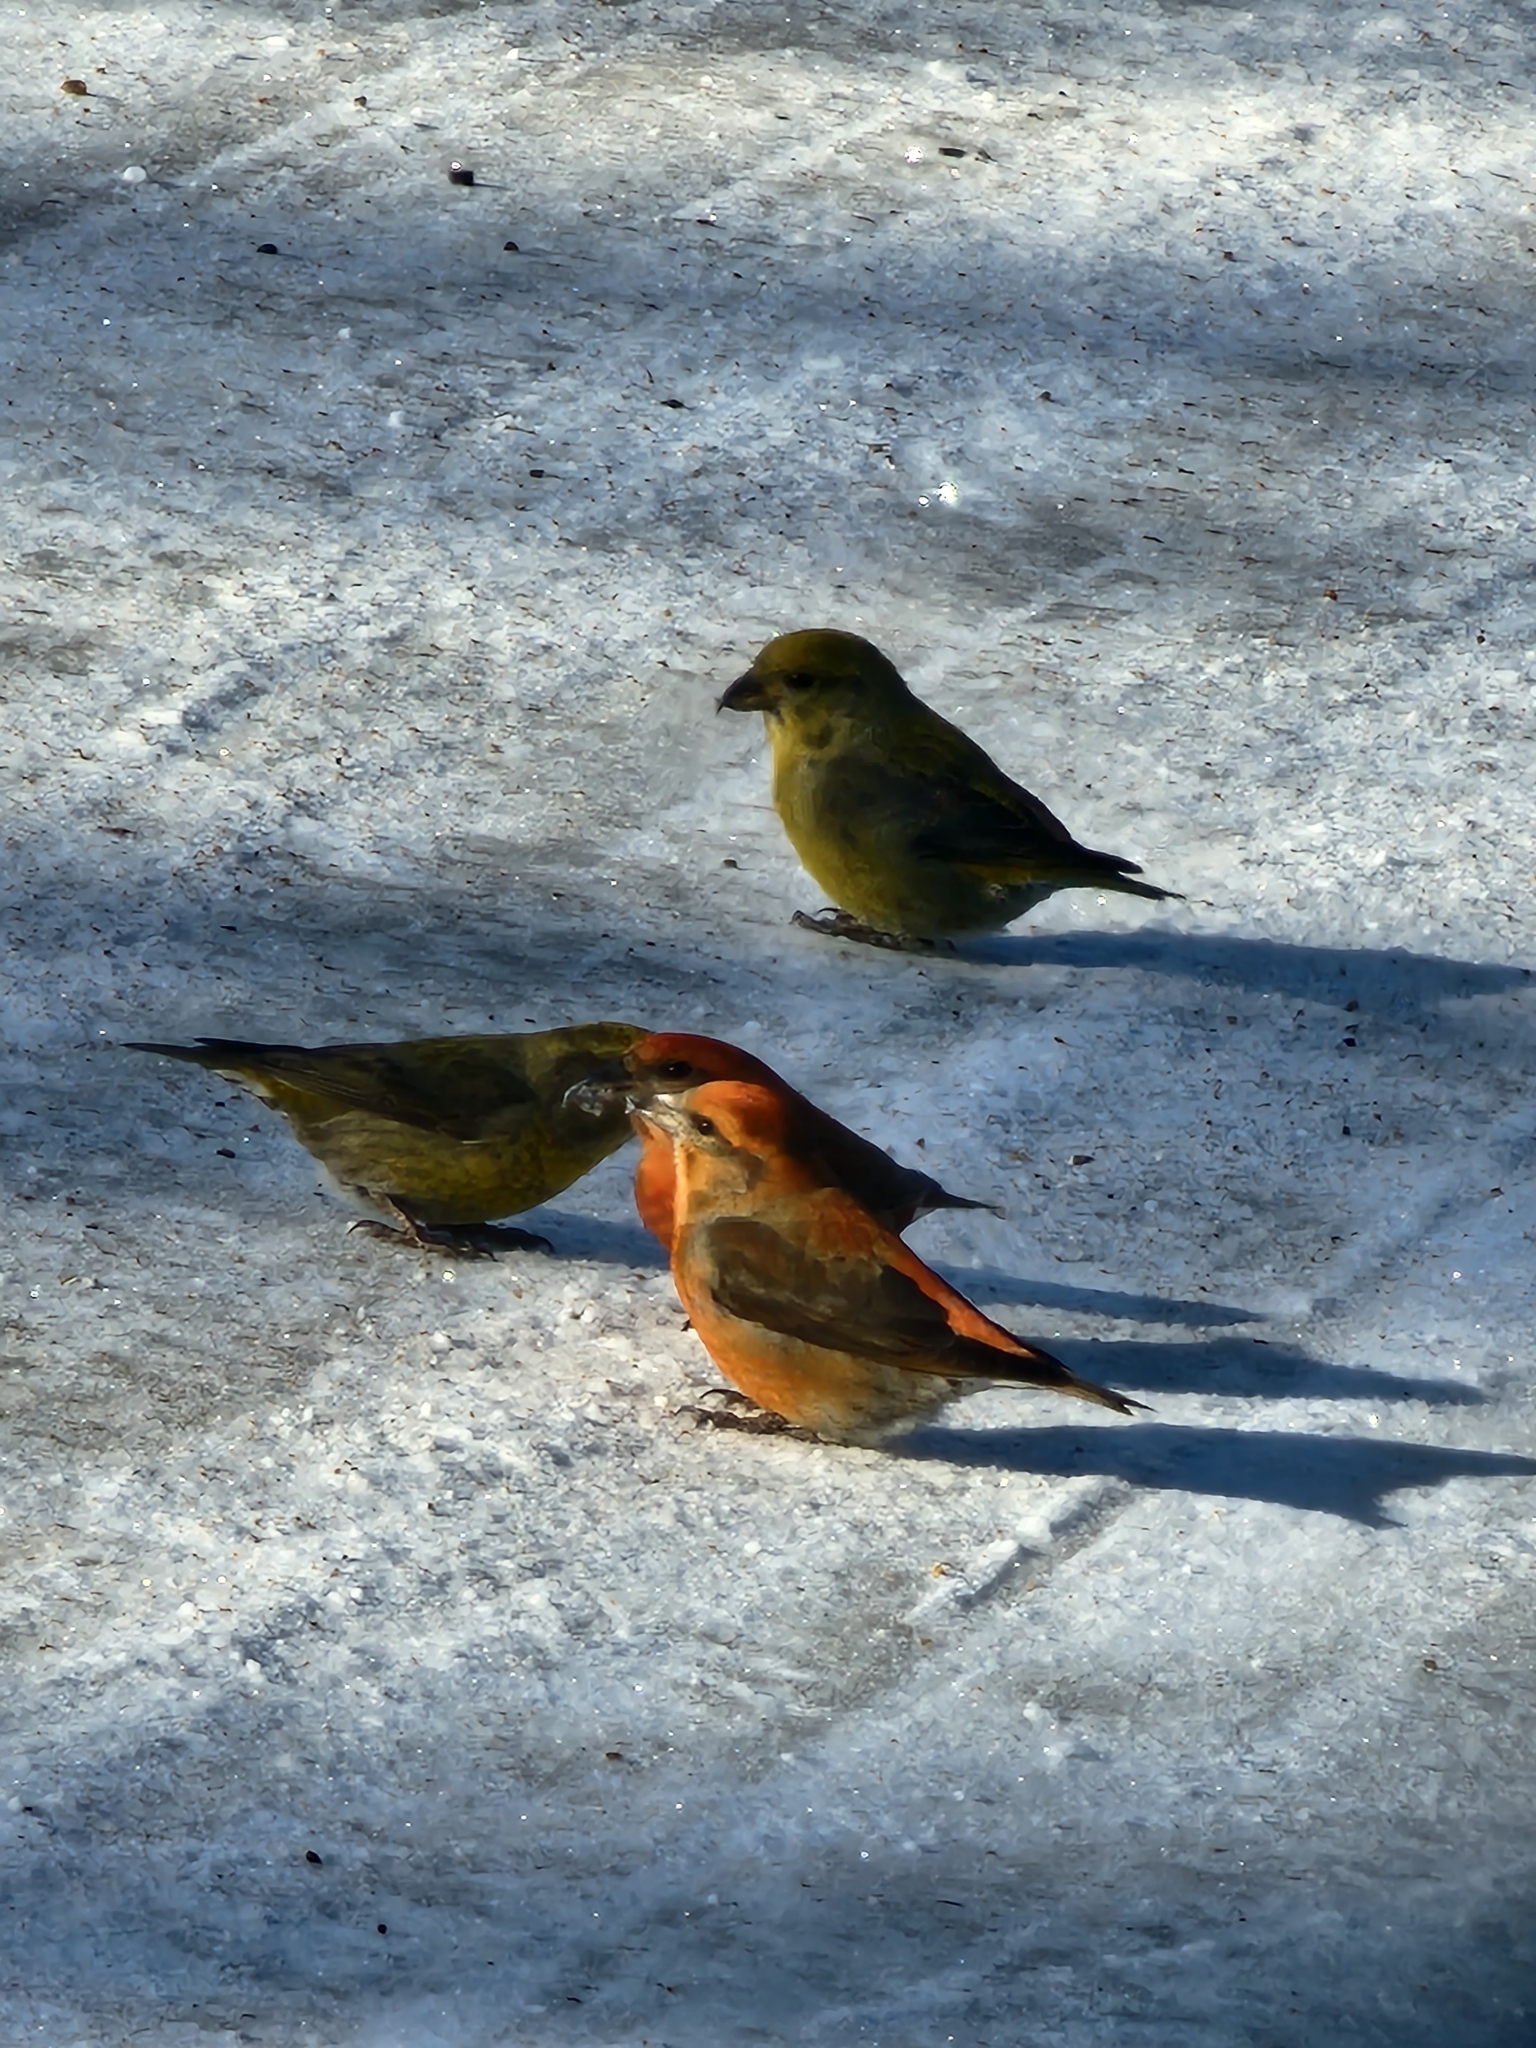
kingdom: Animalia
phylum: Chordata
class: Aves
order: Passeriformes
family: Fringillidae
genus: Loxia
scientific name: Loxia curvirostra
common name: Red crossbill
